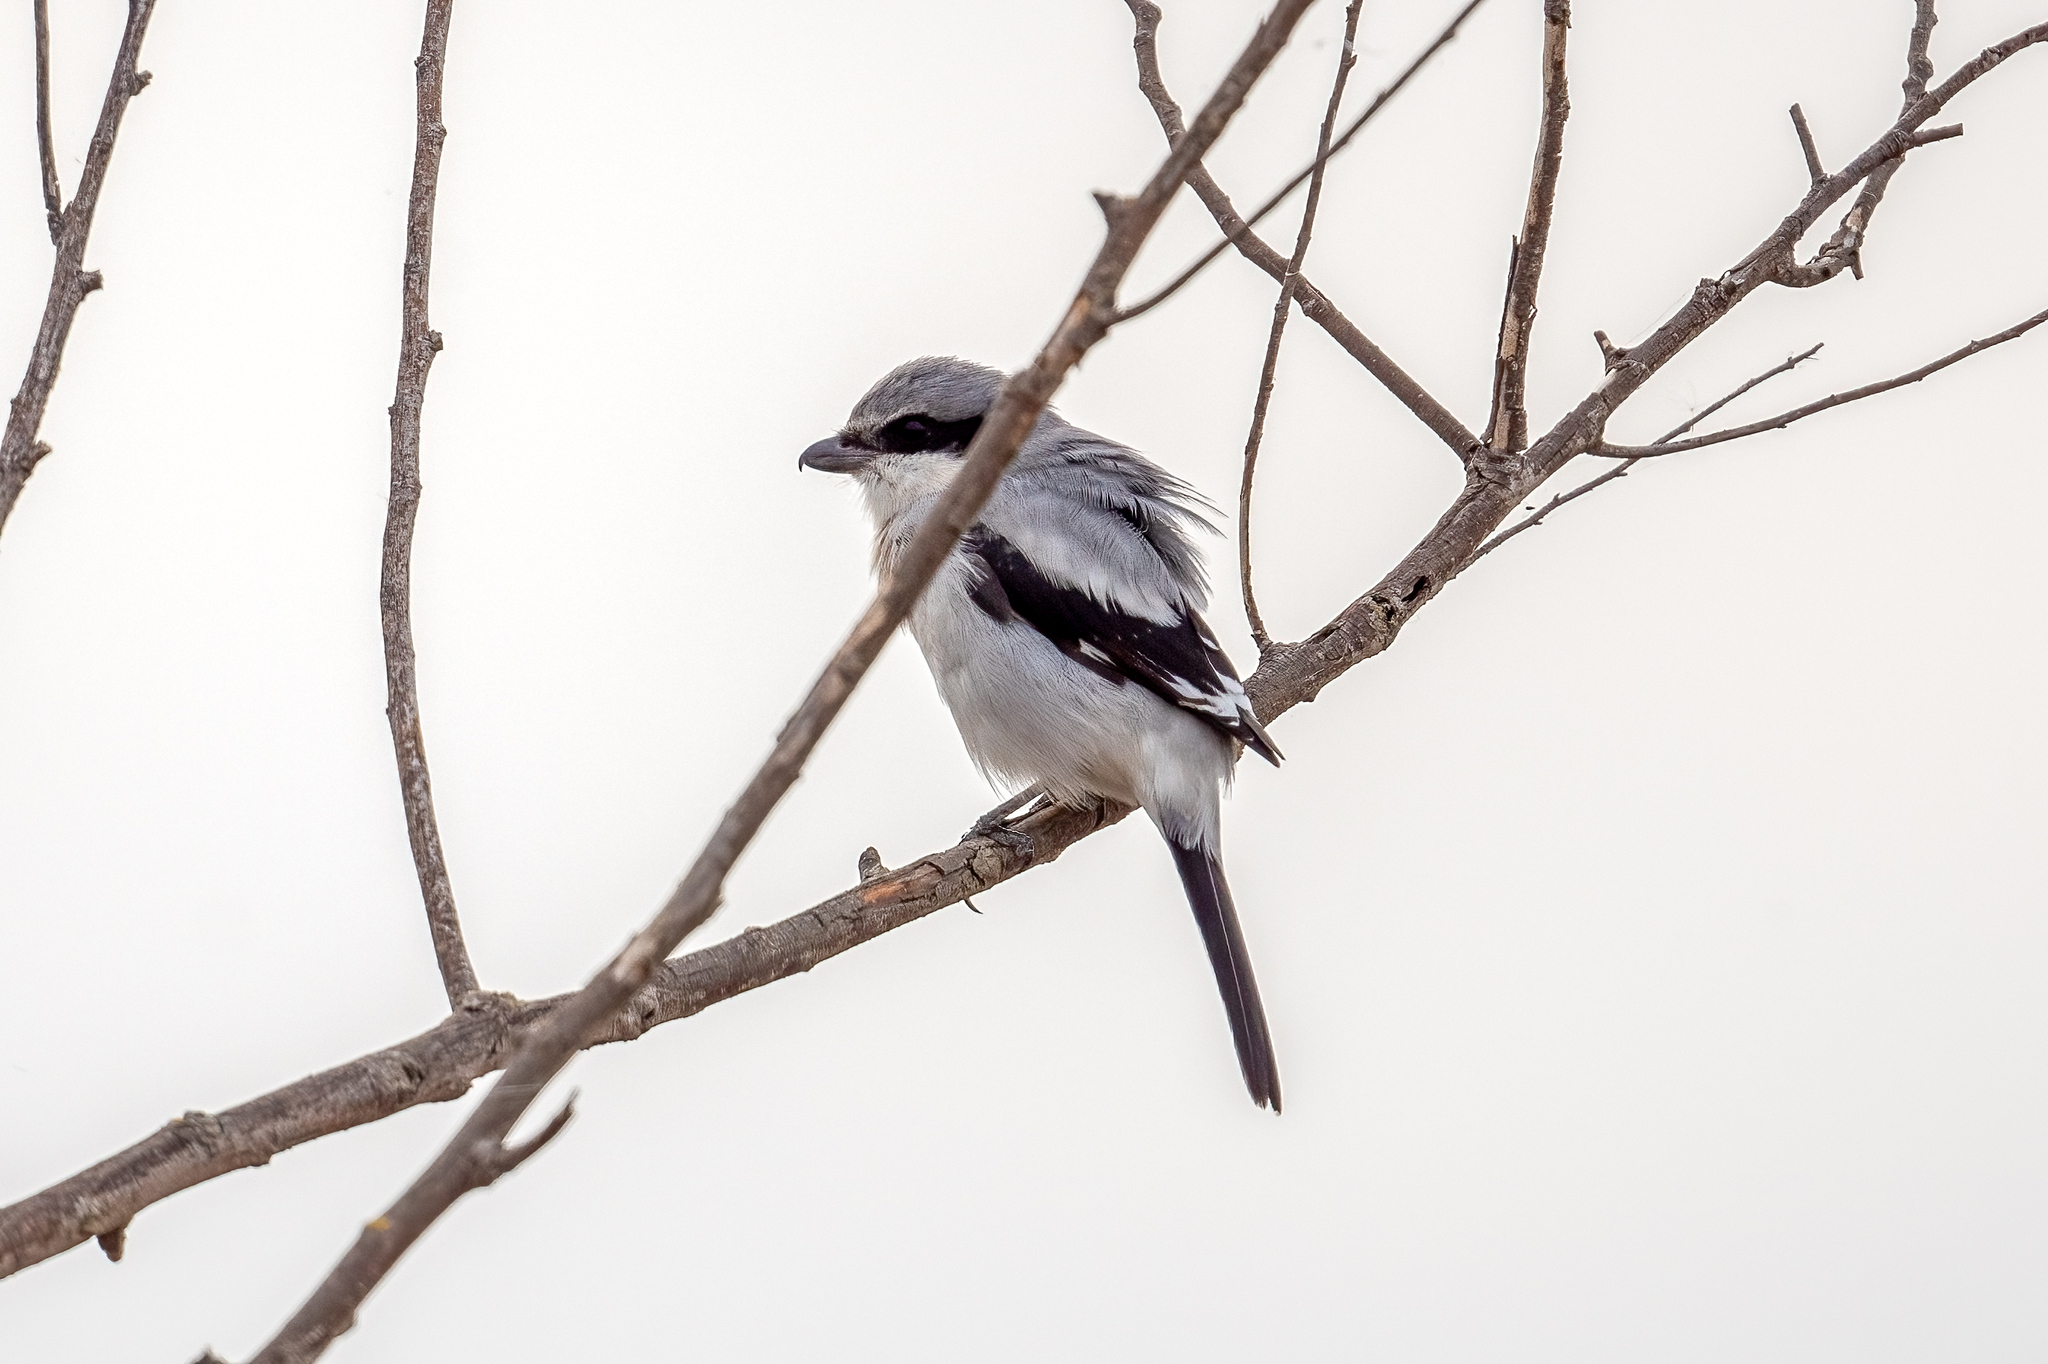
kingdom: Animalia
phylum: Chordata
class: Aves
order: Passeriformes
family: Laniidae
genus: Lanius
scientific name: Lanius ludovicianus
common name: Loggerhead shrike
